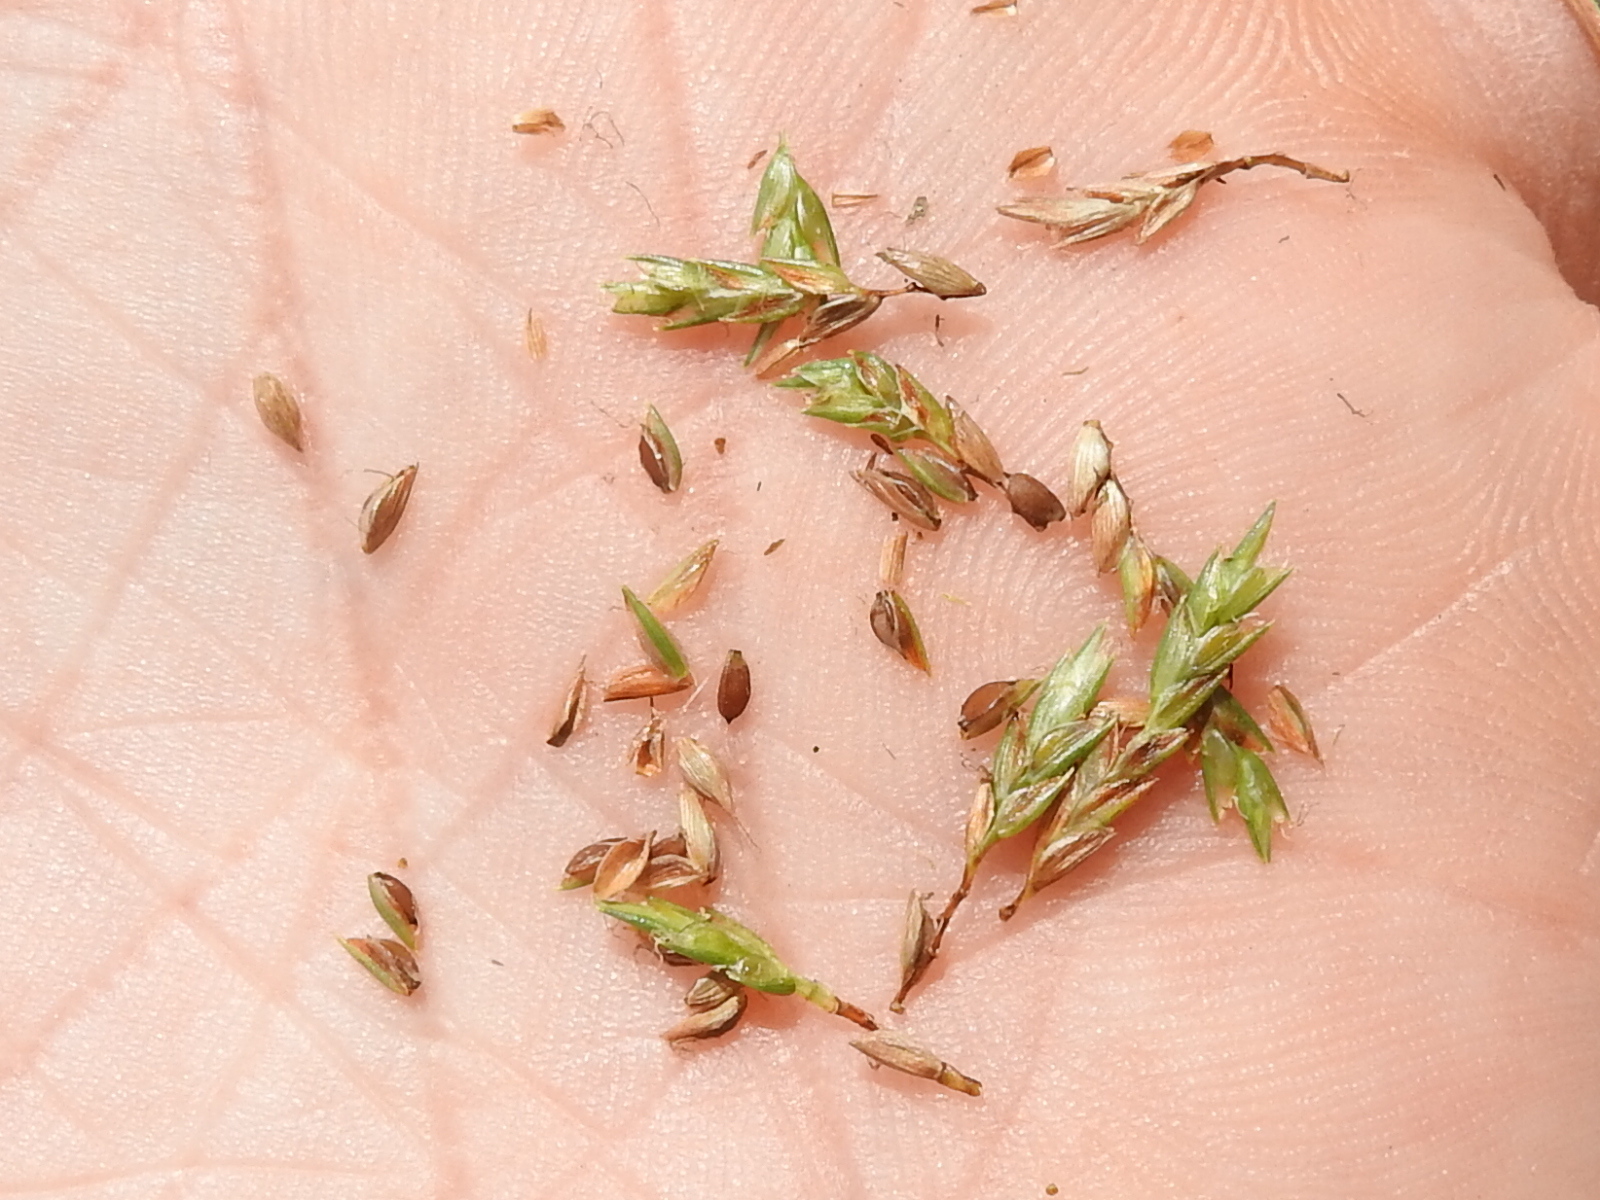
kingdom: Plantae
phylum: Tracheophyta
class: Liliopsida
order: Poales
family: Cyperaceae
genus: Cyperus
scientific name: Cyperus filiculmis
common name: Slender sand sedge
